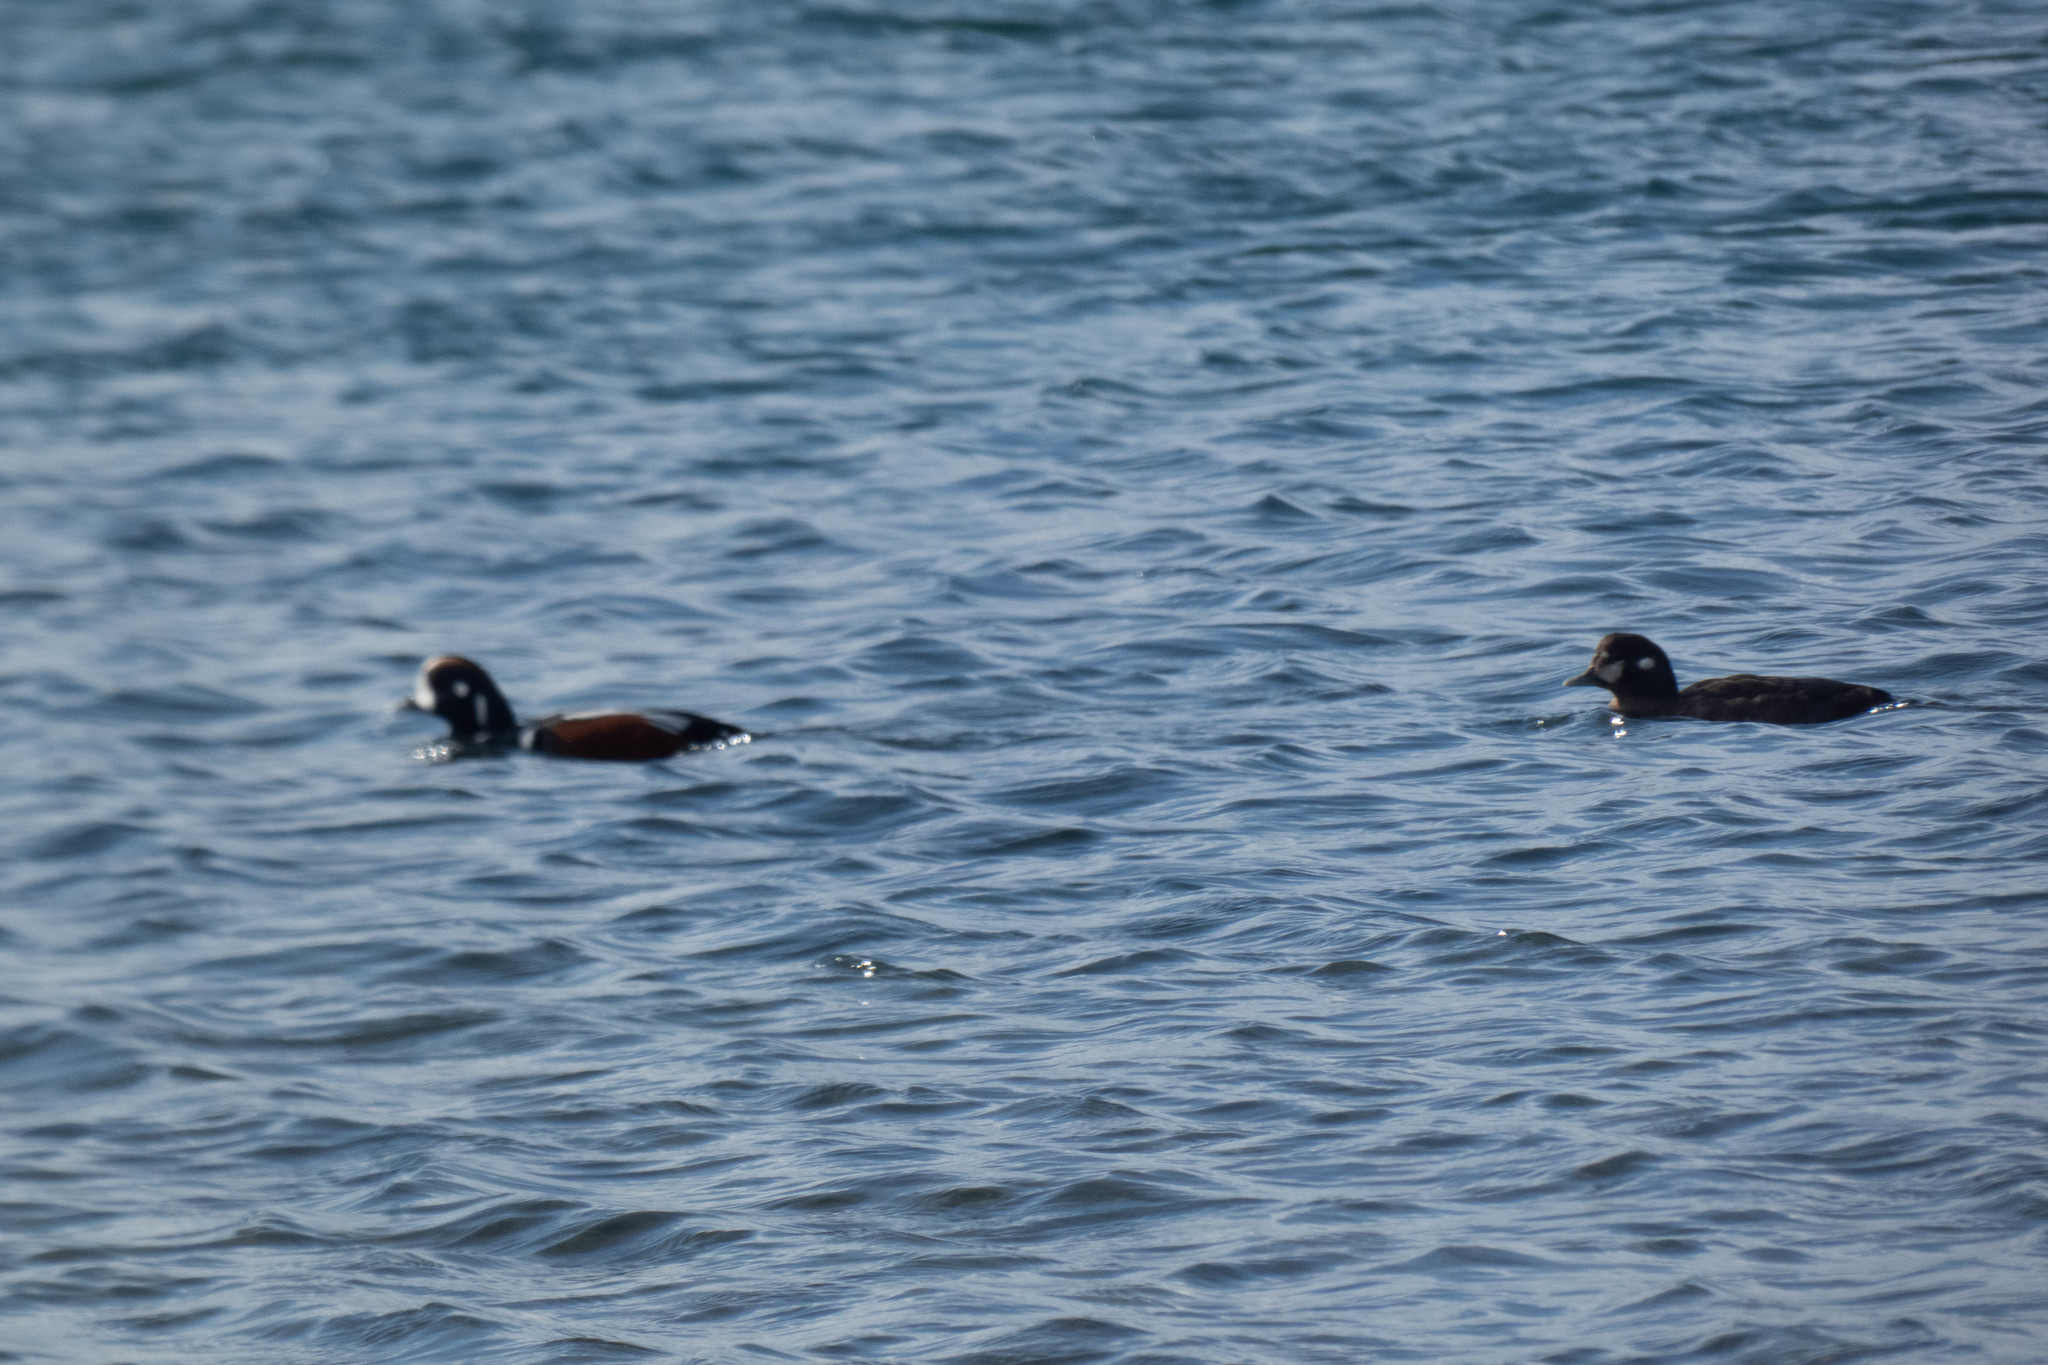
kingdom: Animalia
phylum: Chordata
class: Aves
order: Anseriformes
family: Anatidae
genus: Histrionicus
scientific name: Histrionicus histrionicus
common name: Harlequin duck
